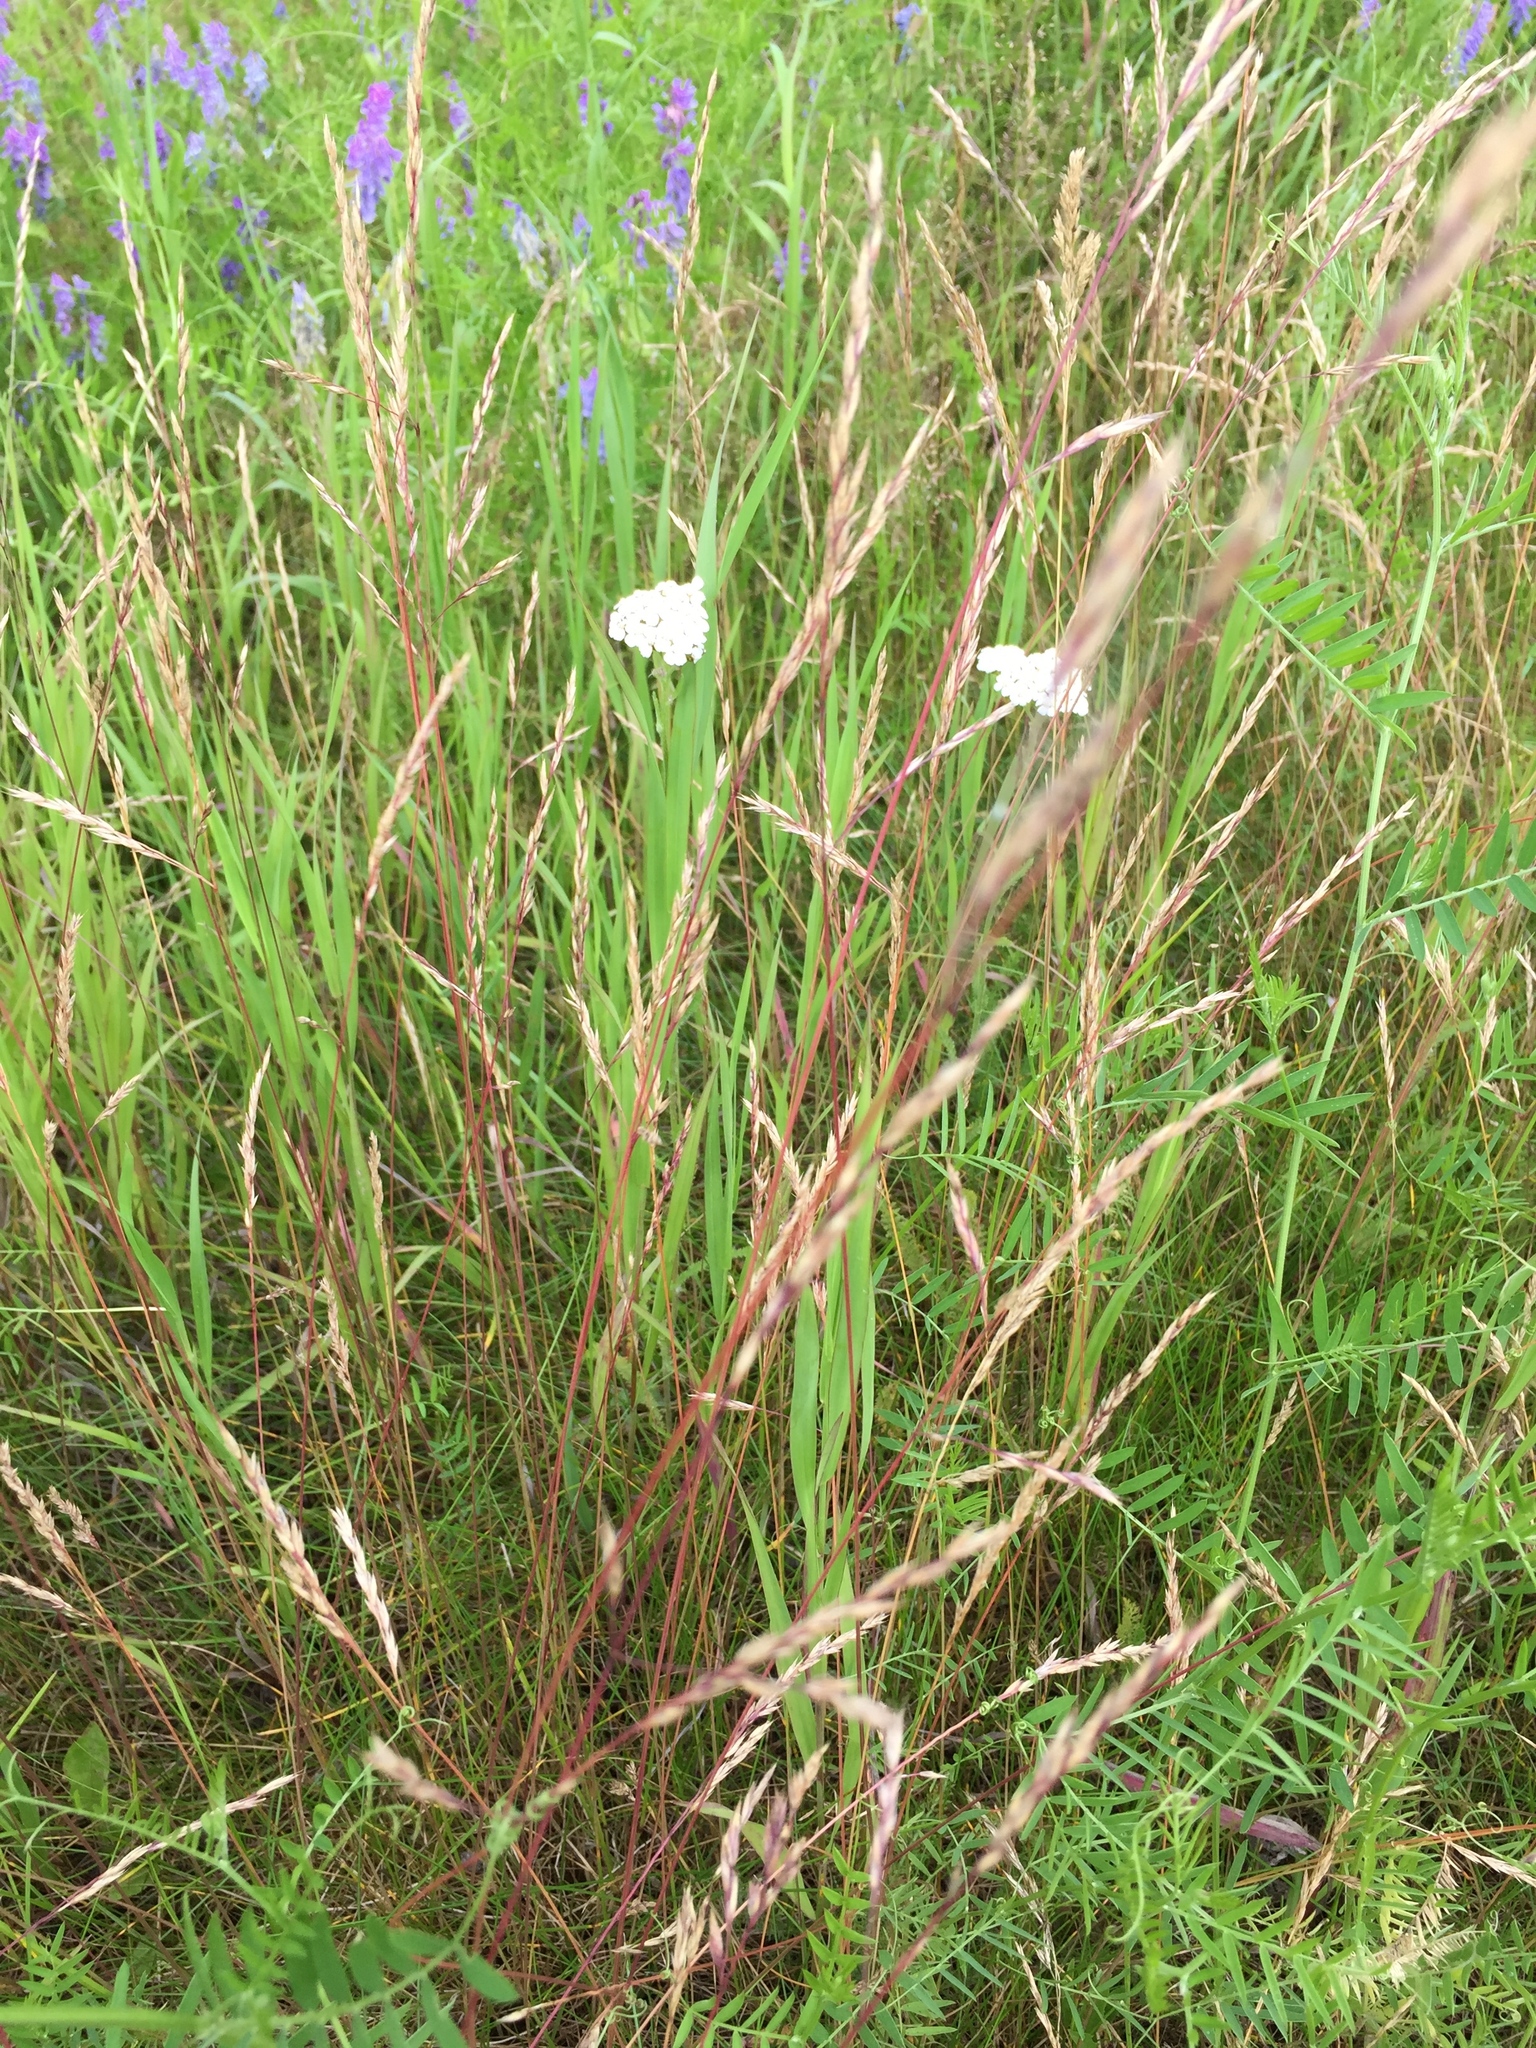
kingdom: Plantae
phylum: Tracheophyta
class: Liliopsida
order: Poales
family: Poaceae
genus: Festuca
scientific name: Festuca rubra
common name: Red fescue
